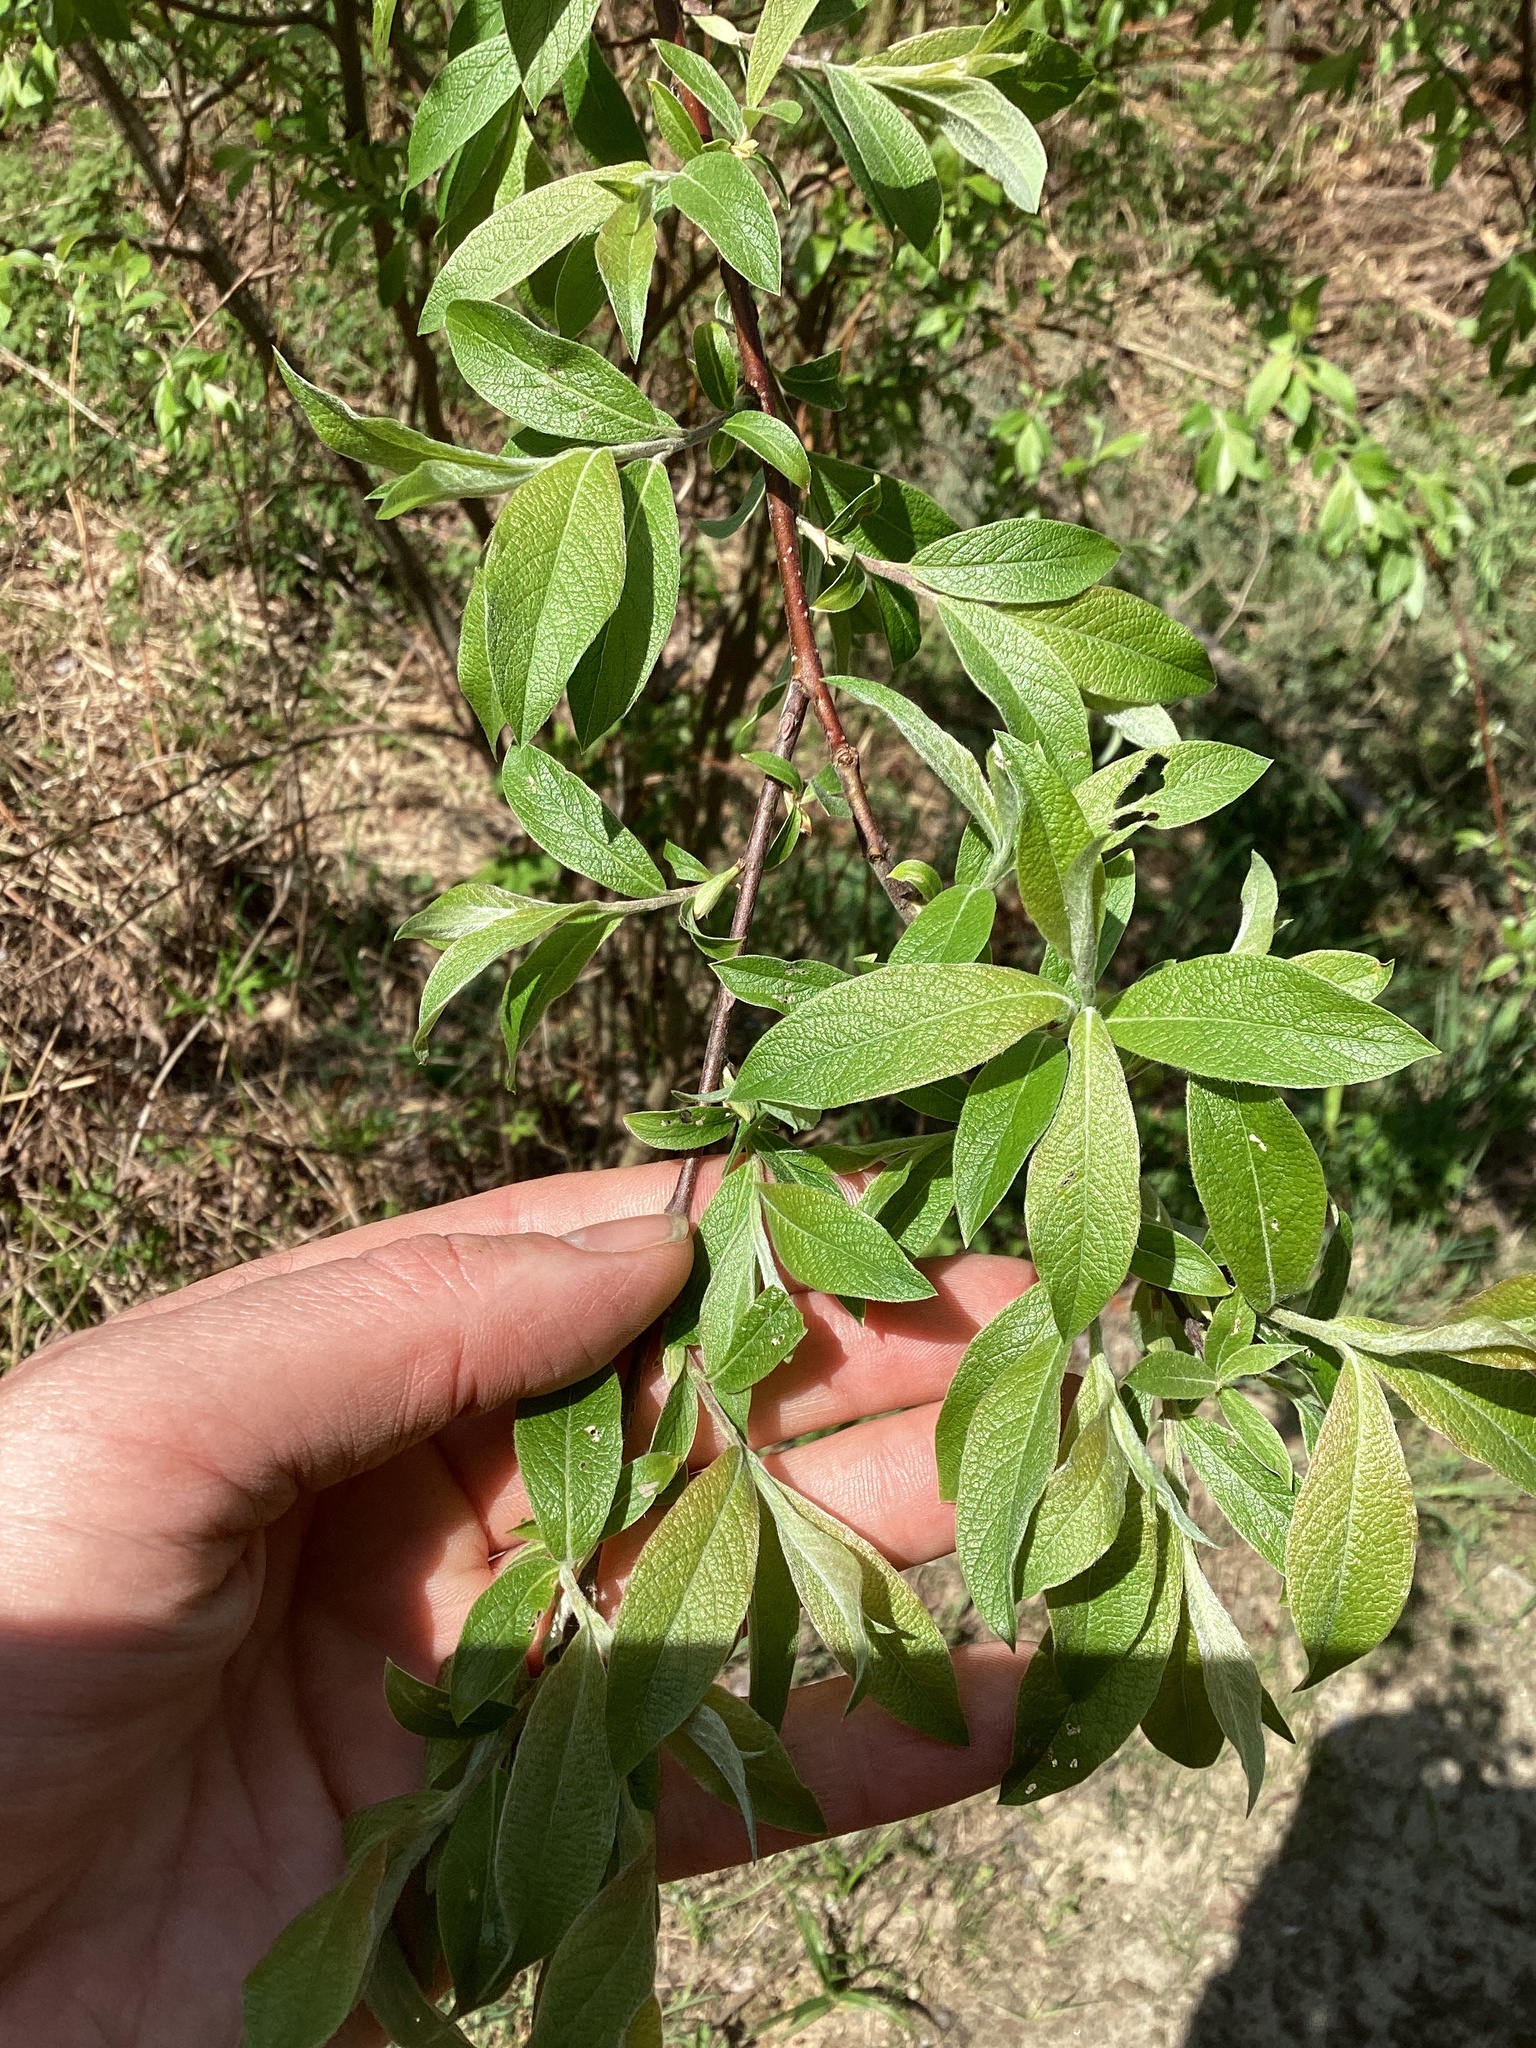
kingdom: Plantae
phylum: Tracheophyta
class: Magnoliopsida
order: Malpighiales
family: Salicaceae
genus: Salix
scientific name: Salix bebbiana
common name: Bebb's willow
